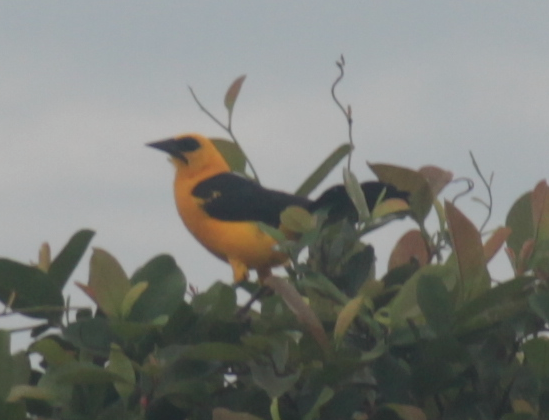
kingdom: Animalia
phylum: Chordata
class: Aves
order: Passeriformes
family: Icteridae
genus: Gymnomystax
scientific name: Gymnomystax mexicanus
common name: Oriole blackbird
